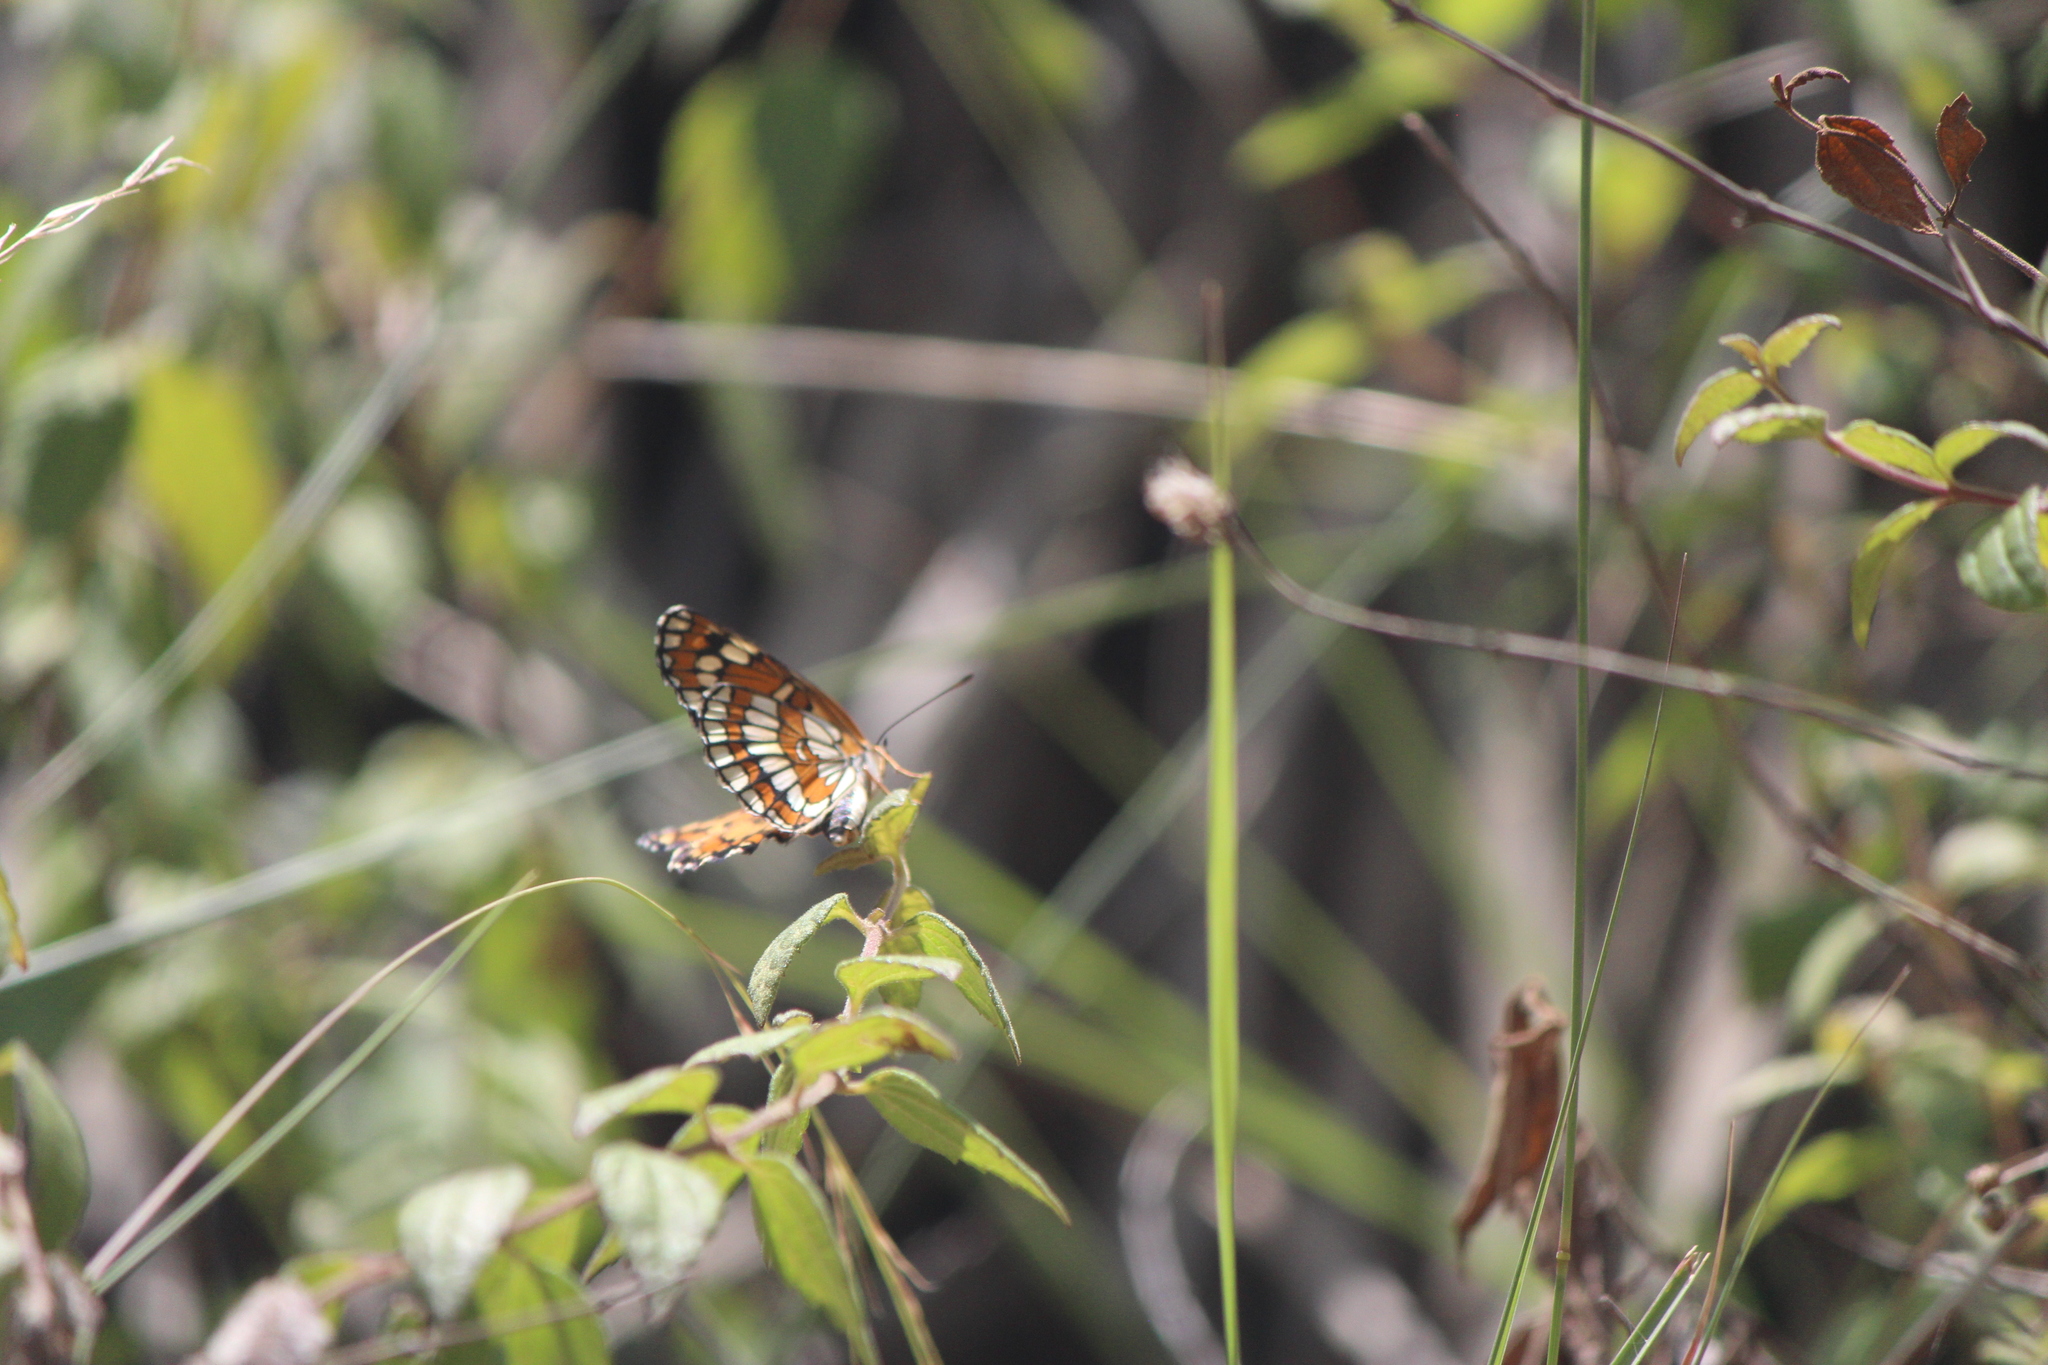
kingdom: Animalia
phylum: Arthropoda
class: Insecta
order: Lepidoptera
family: Nymphalidae
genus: Chlosyne
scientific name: Chlosyne
